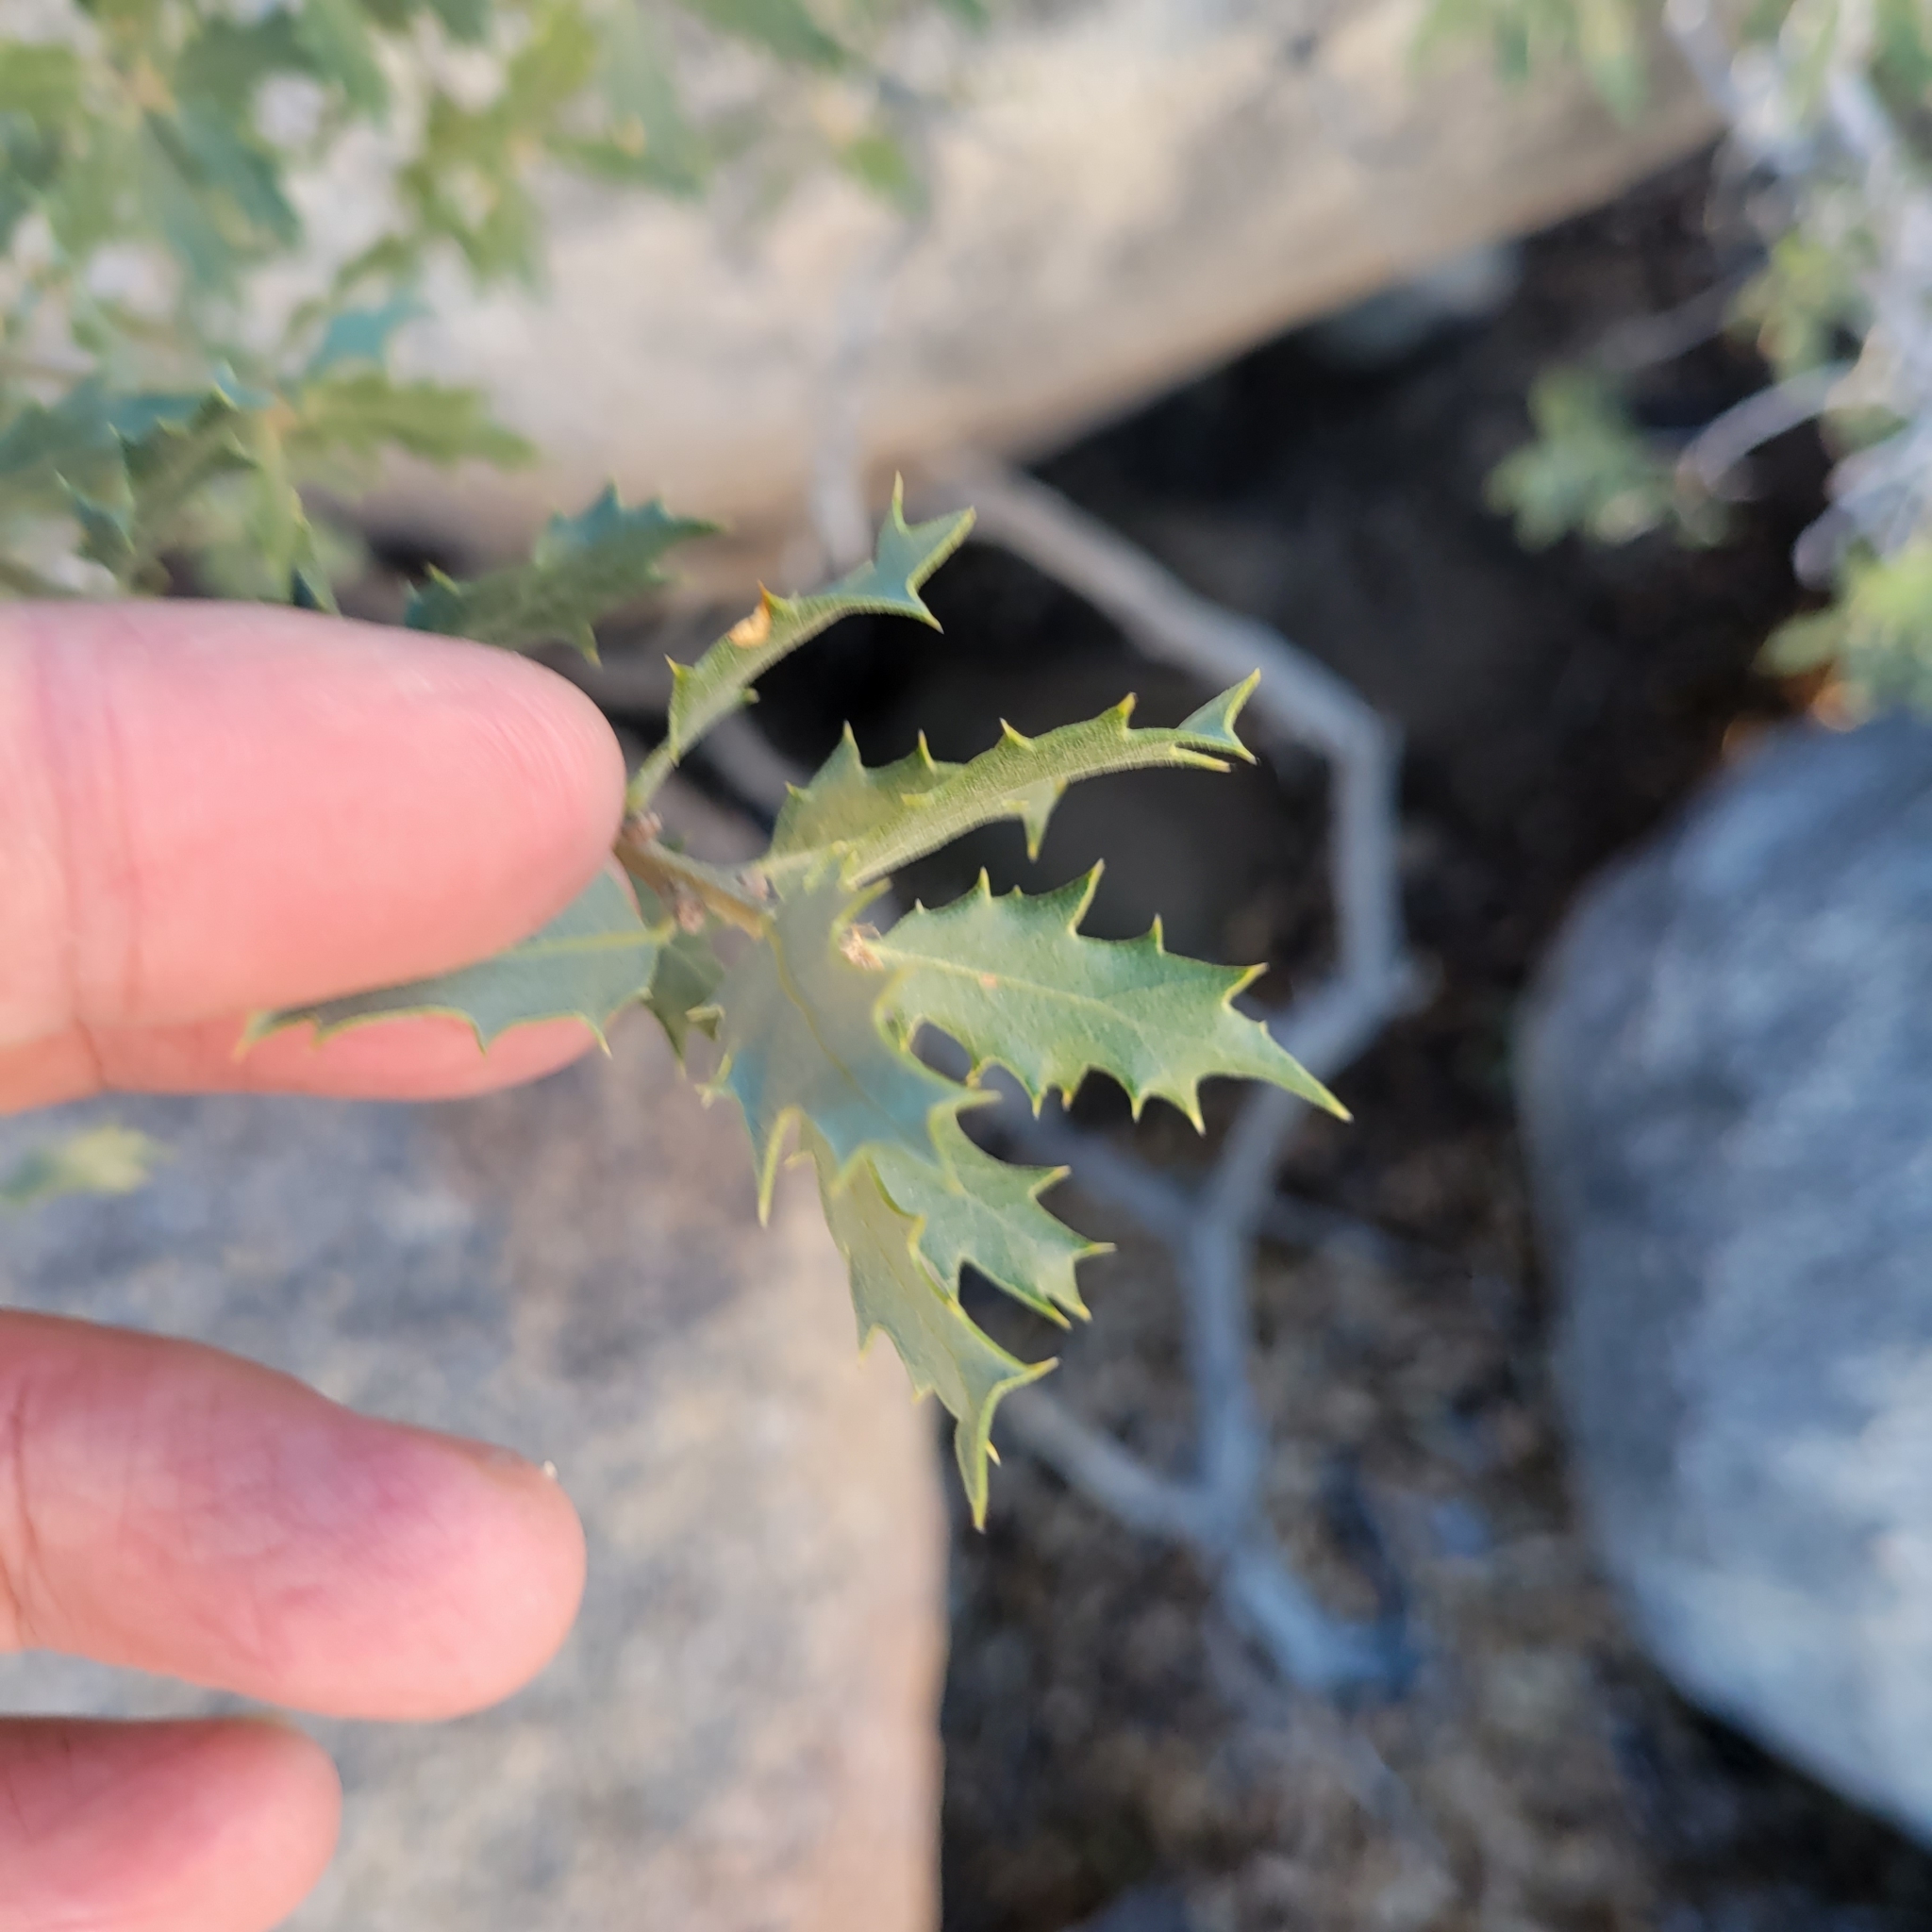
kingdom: Plantae
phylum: Tracheophyta
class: Magnoliopsida
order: Fagales
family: Fagaceae
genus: Quercus
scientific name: Quercus cornelius-mulleri
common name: Muller oak
